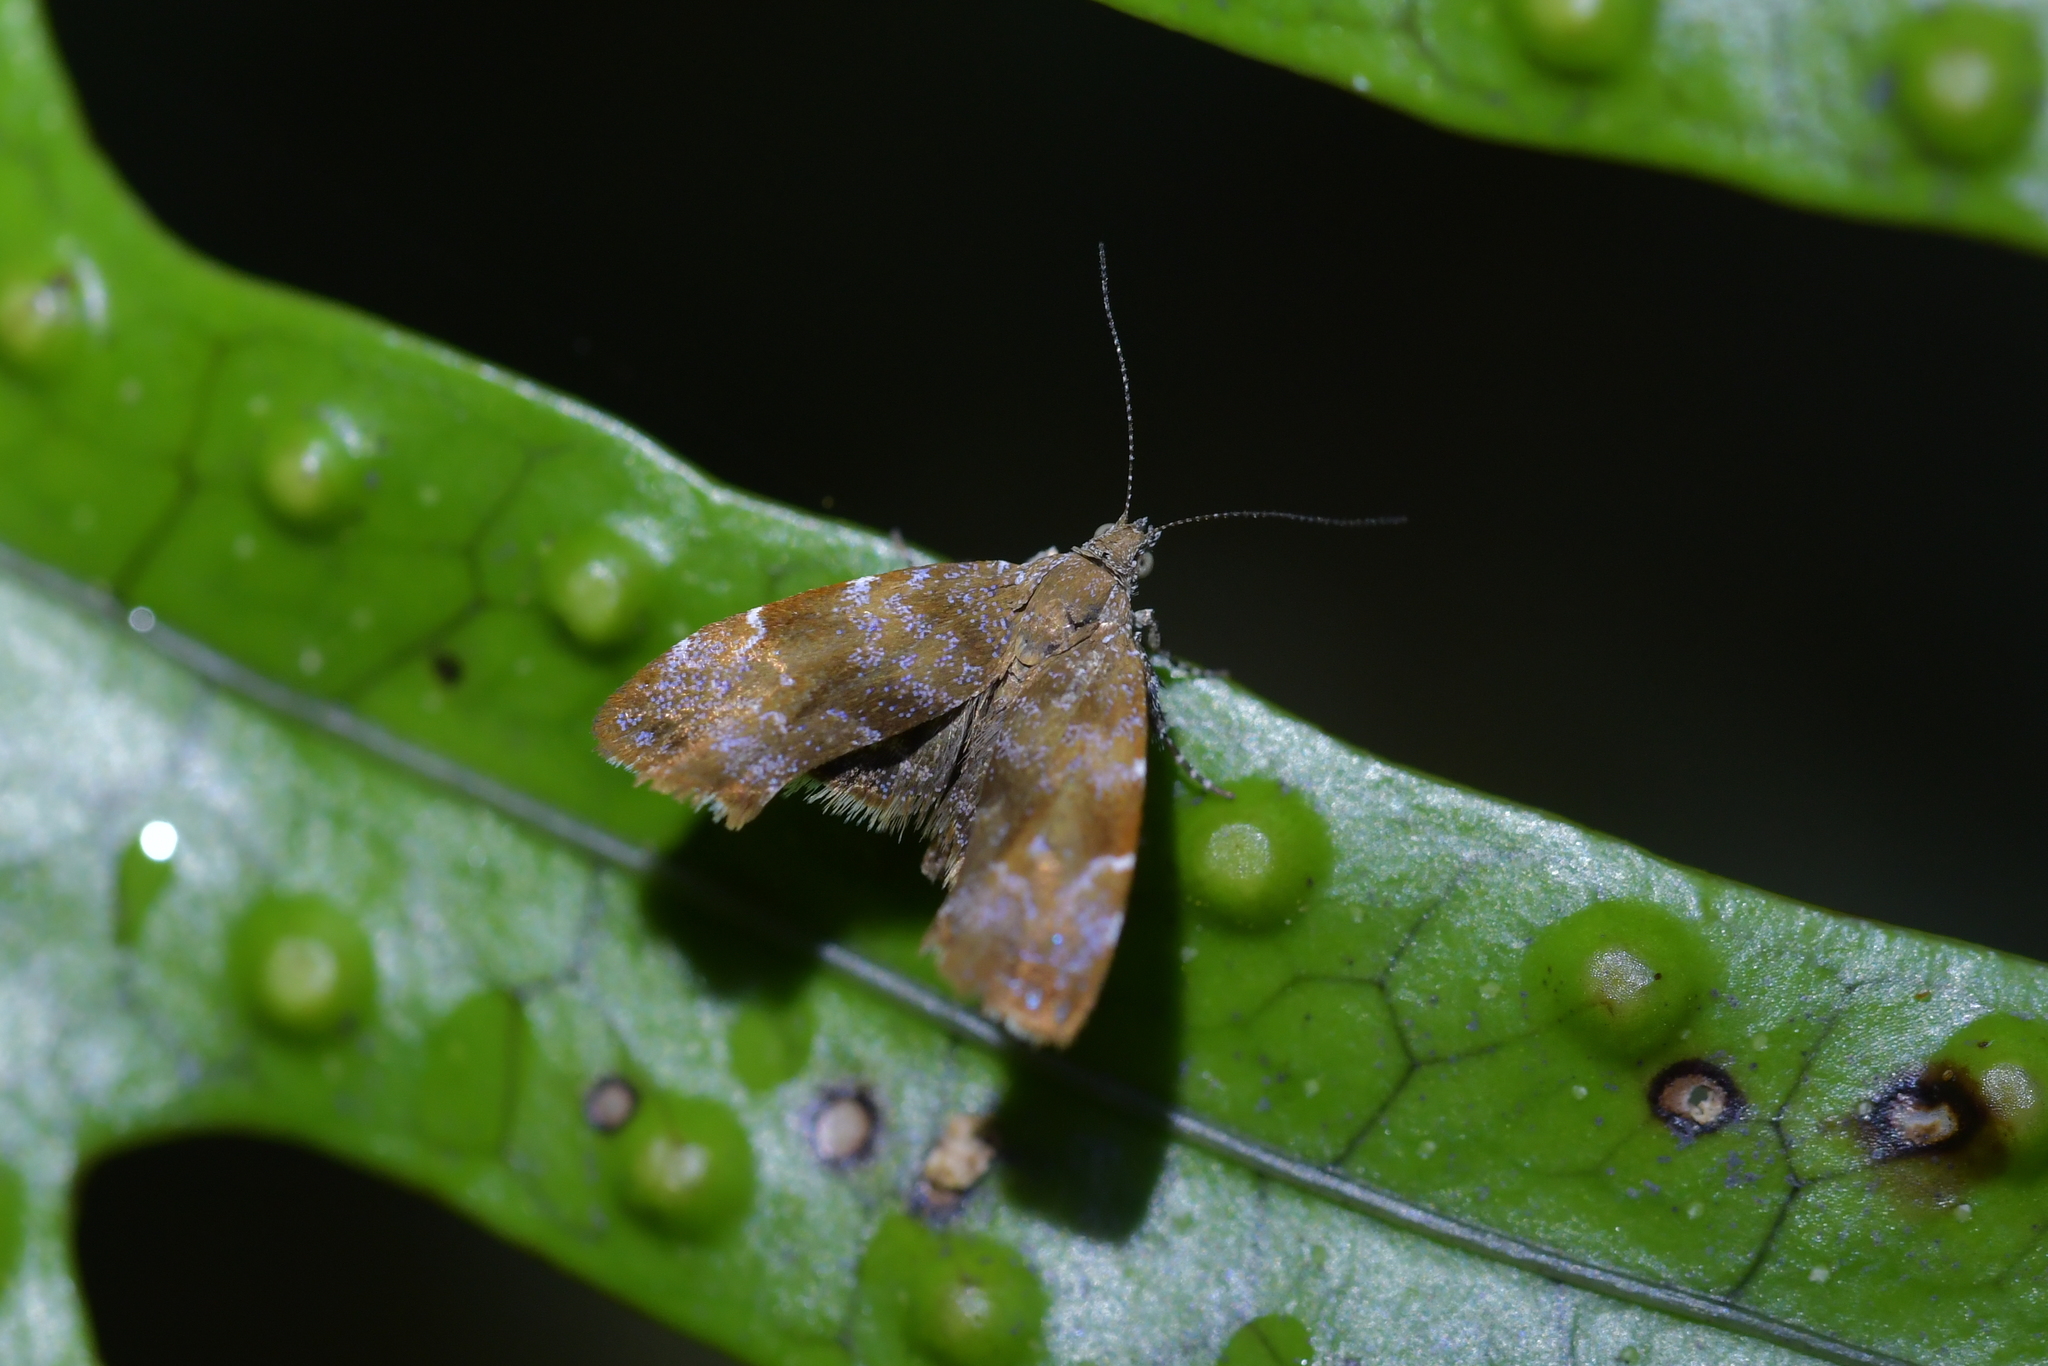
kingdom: Animalia
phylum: Arthropoda
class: Insecta
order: Lepidoptera
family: Choreutidae
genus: Asterivora
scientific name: Asterivora colpota
